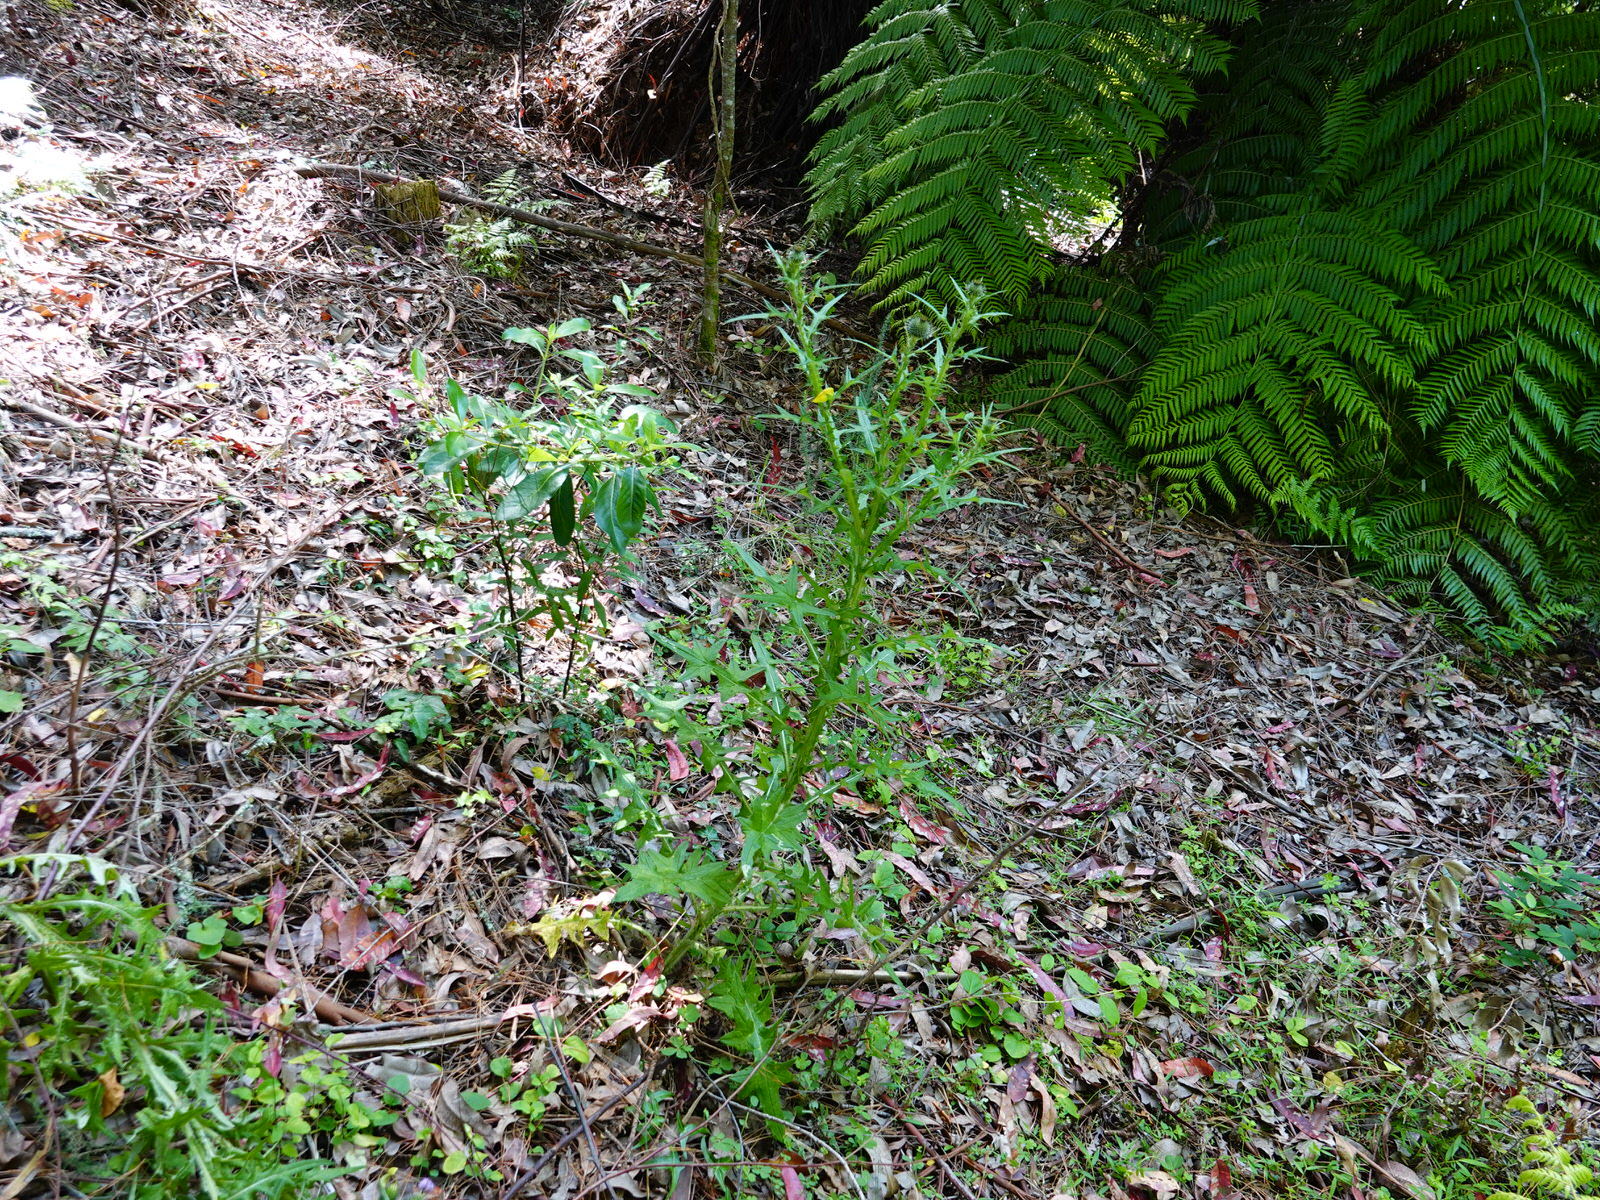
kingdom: Plantae
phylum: Tracheophyta
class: Magnoliopsida
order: Asterales
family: Asteraceae
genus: Cirsium
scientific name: Cirsium vulgare
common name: Bull thistle
